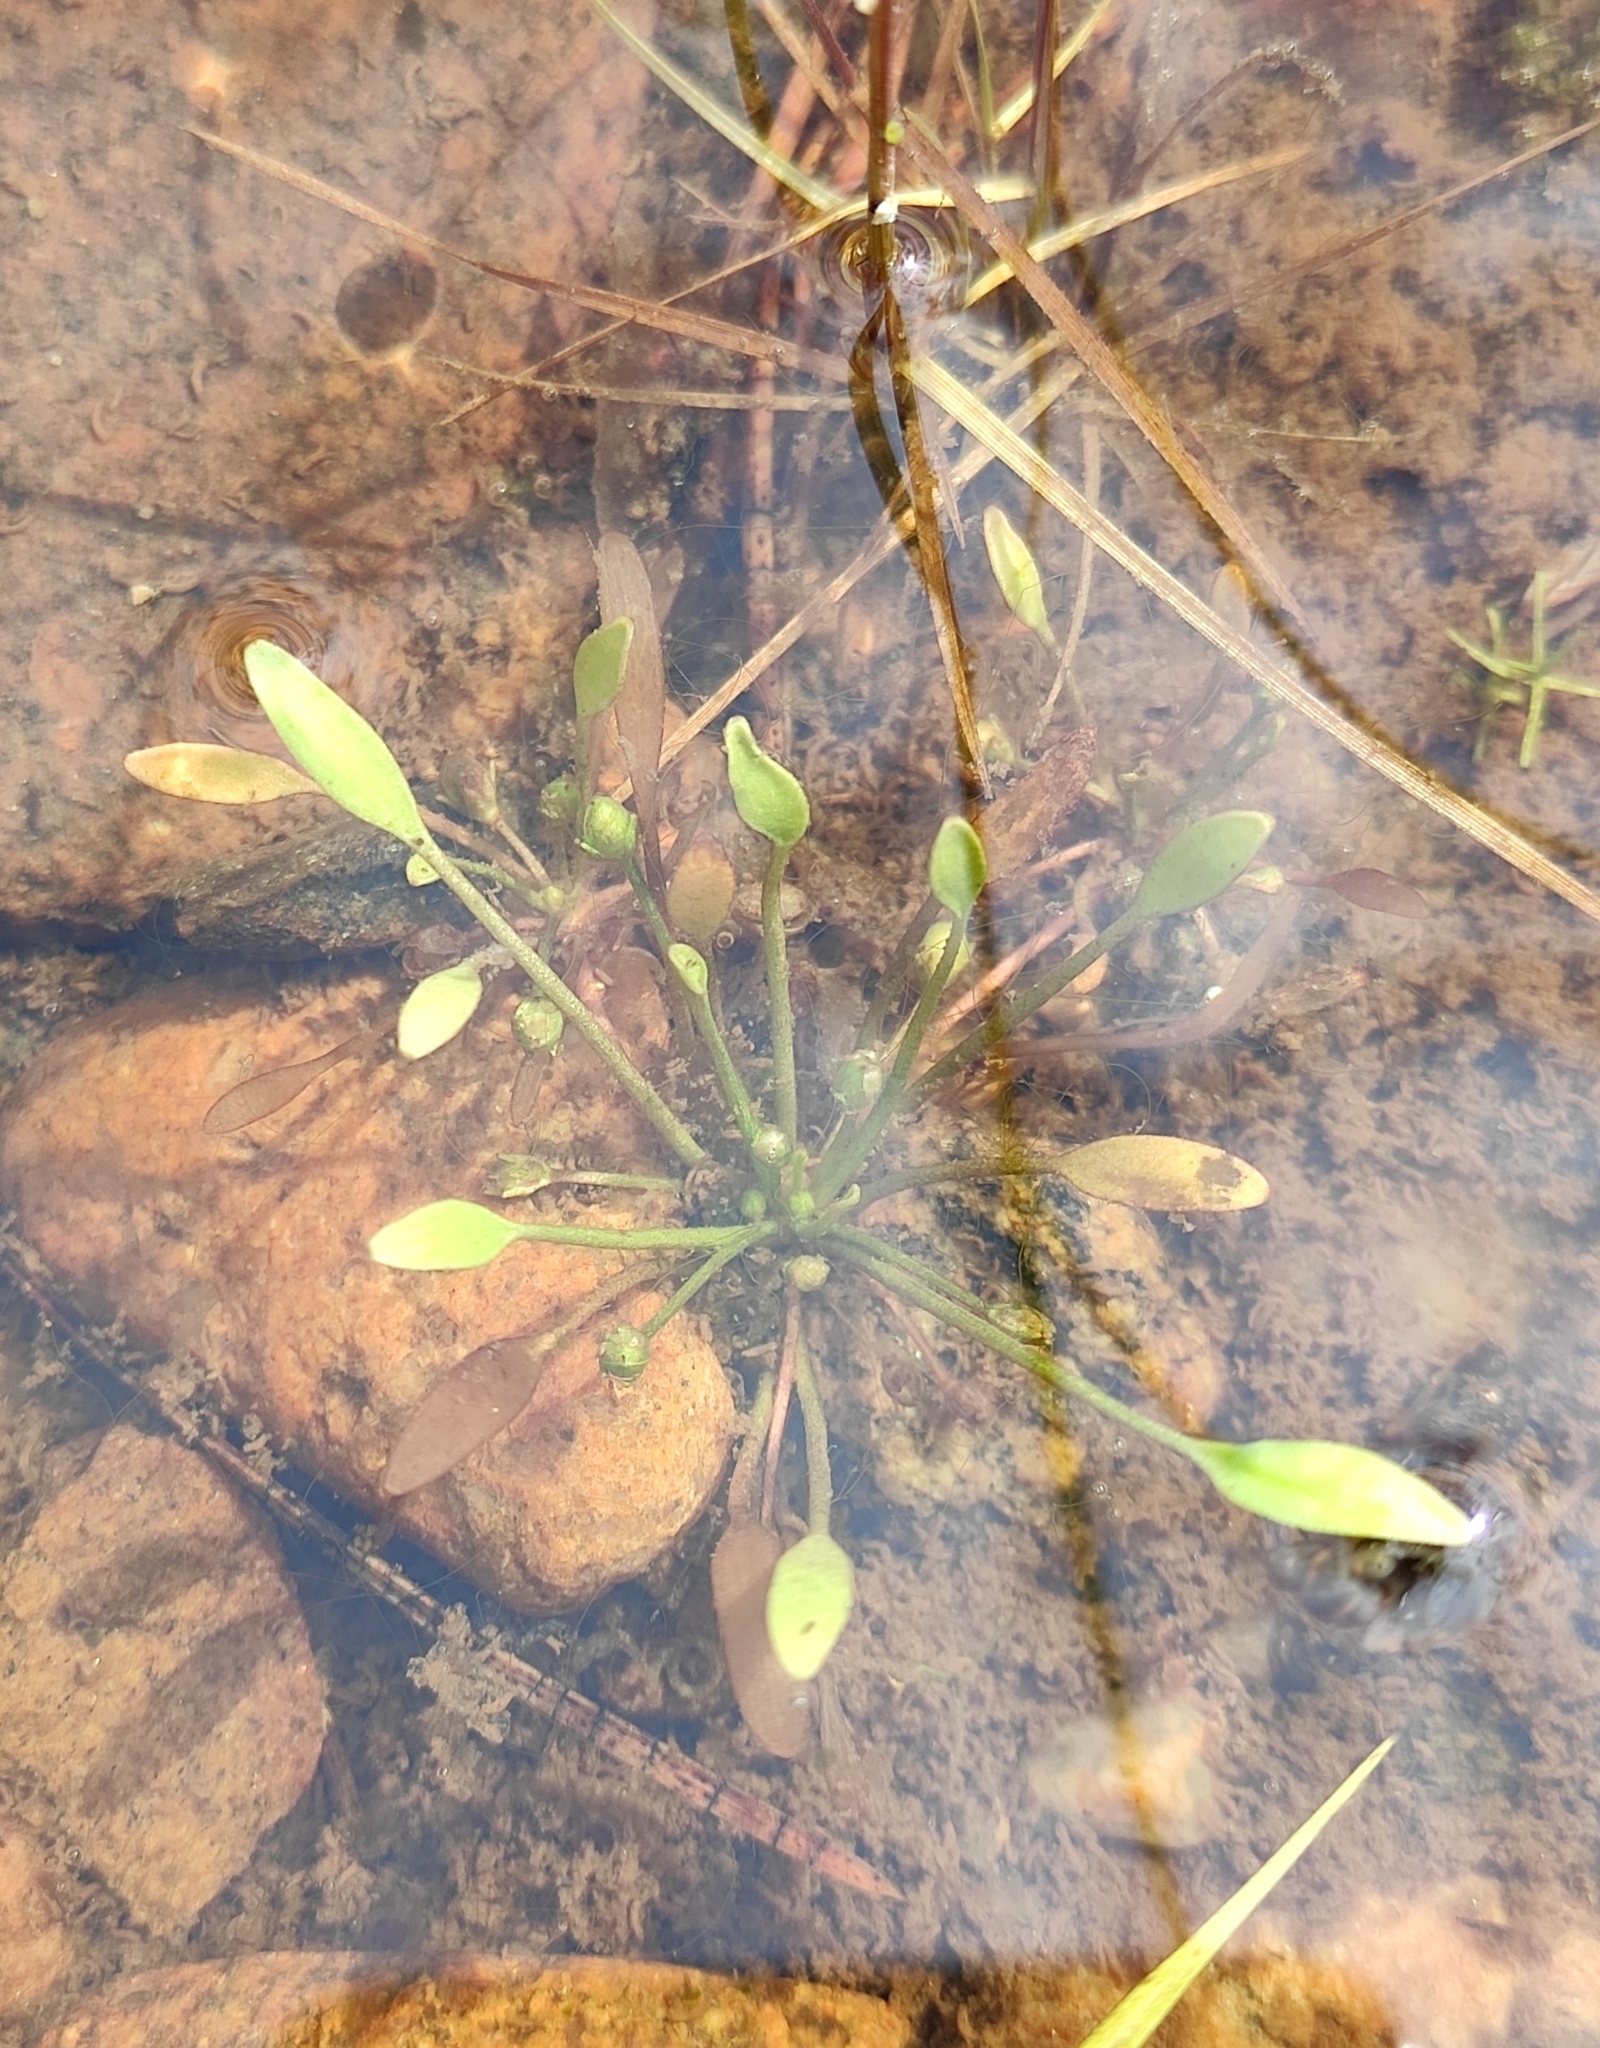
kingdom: Plantae
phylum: Tracheophyta
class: Magnoliopsida
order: Lamiales
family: Scrophulariaceae
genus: Limosella
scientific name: Limosella aquatica
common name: Mudwort
